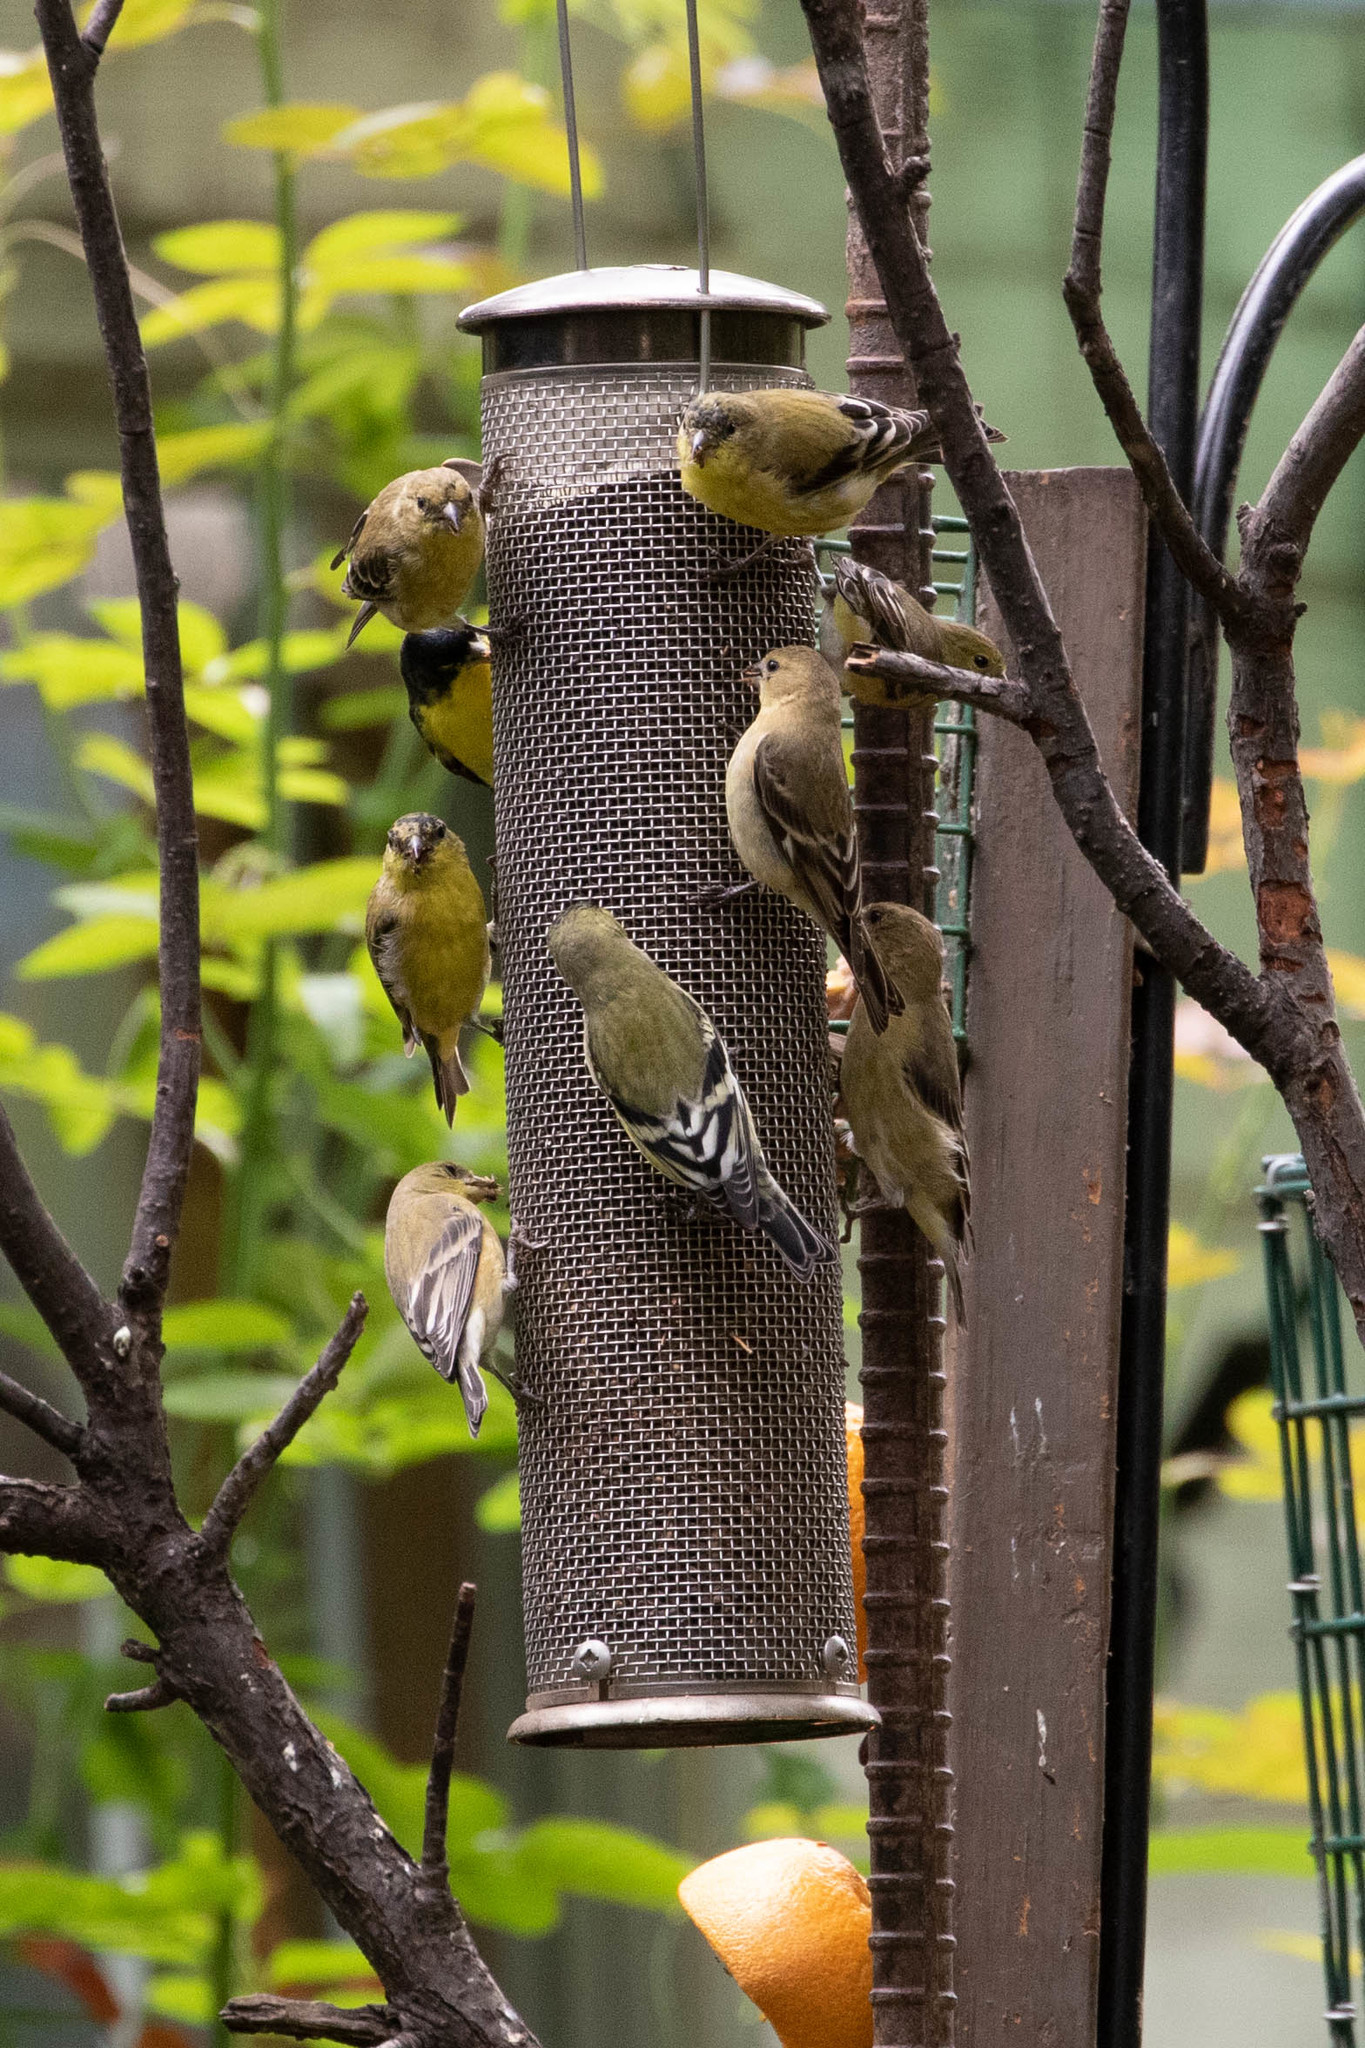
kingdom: Animalia
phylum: Chordata
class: Aves
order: Passeriformes
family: Fringillidae
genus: Spinus
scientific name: Spinus psaltria
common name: Lesser goldfinch
